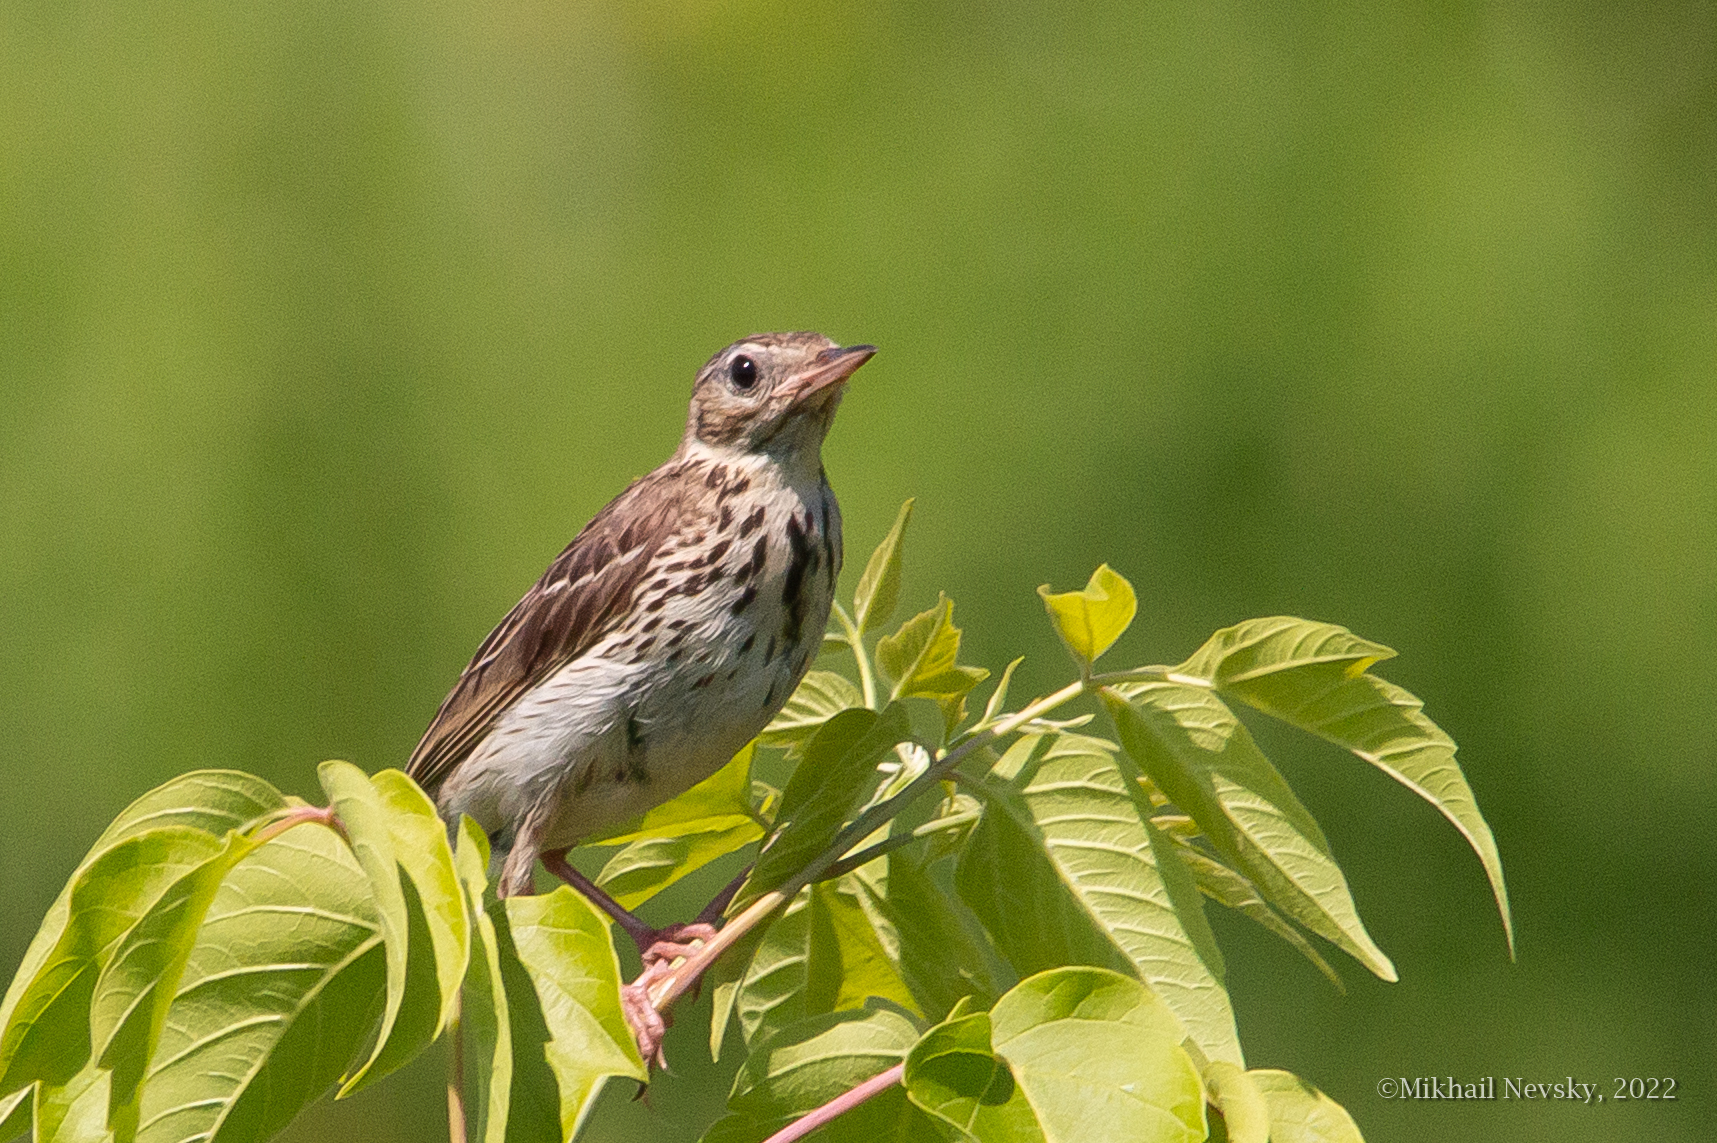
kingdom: Animalia
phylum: Chordata
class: Aves
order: Passeriformes
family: Motacillidae
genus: Anthus
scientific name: Anthus trivialis
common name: Tree pipit
